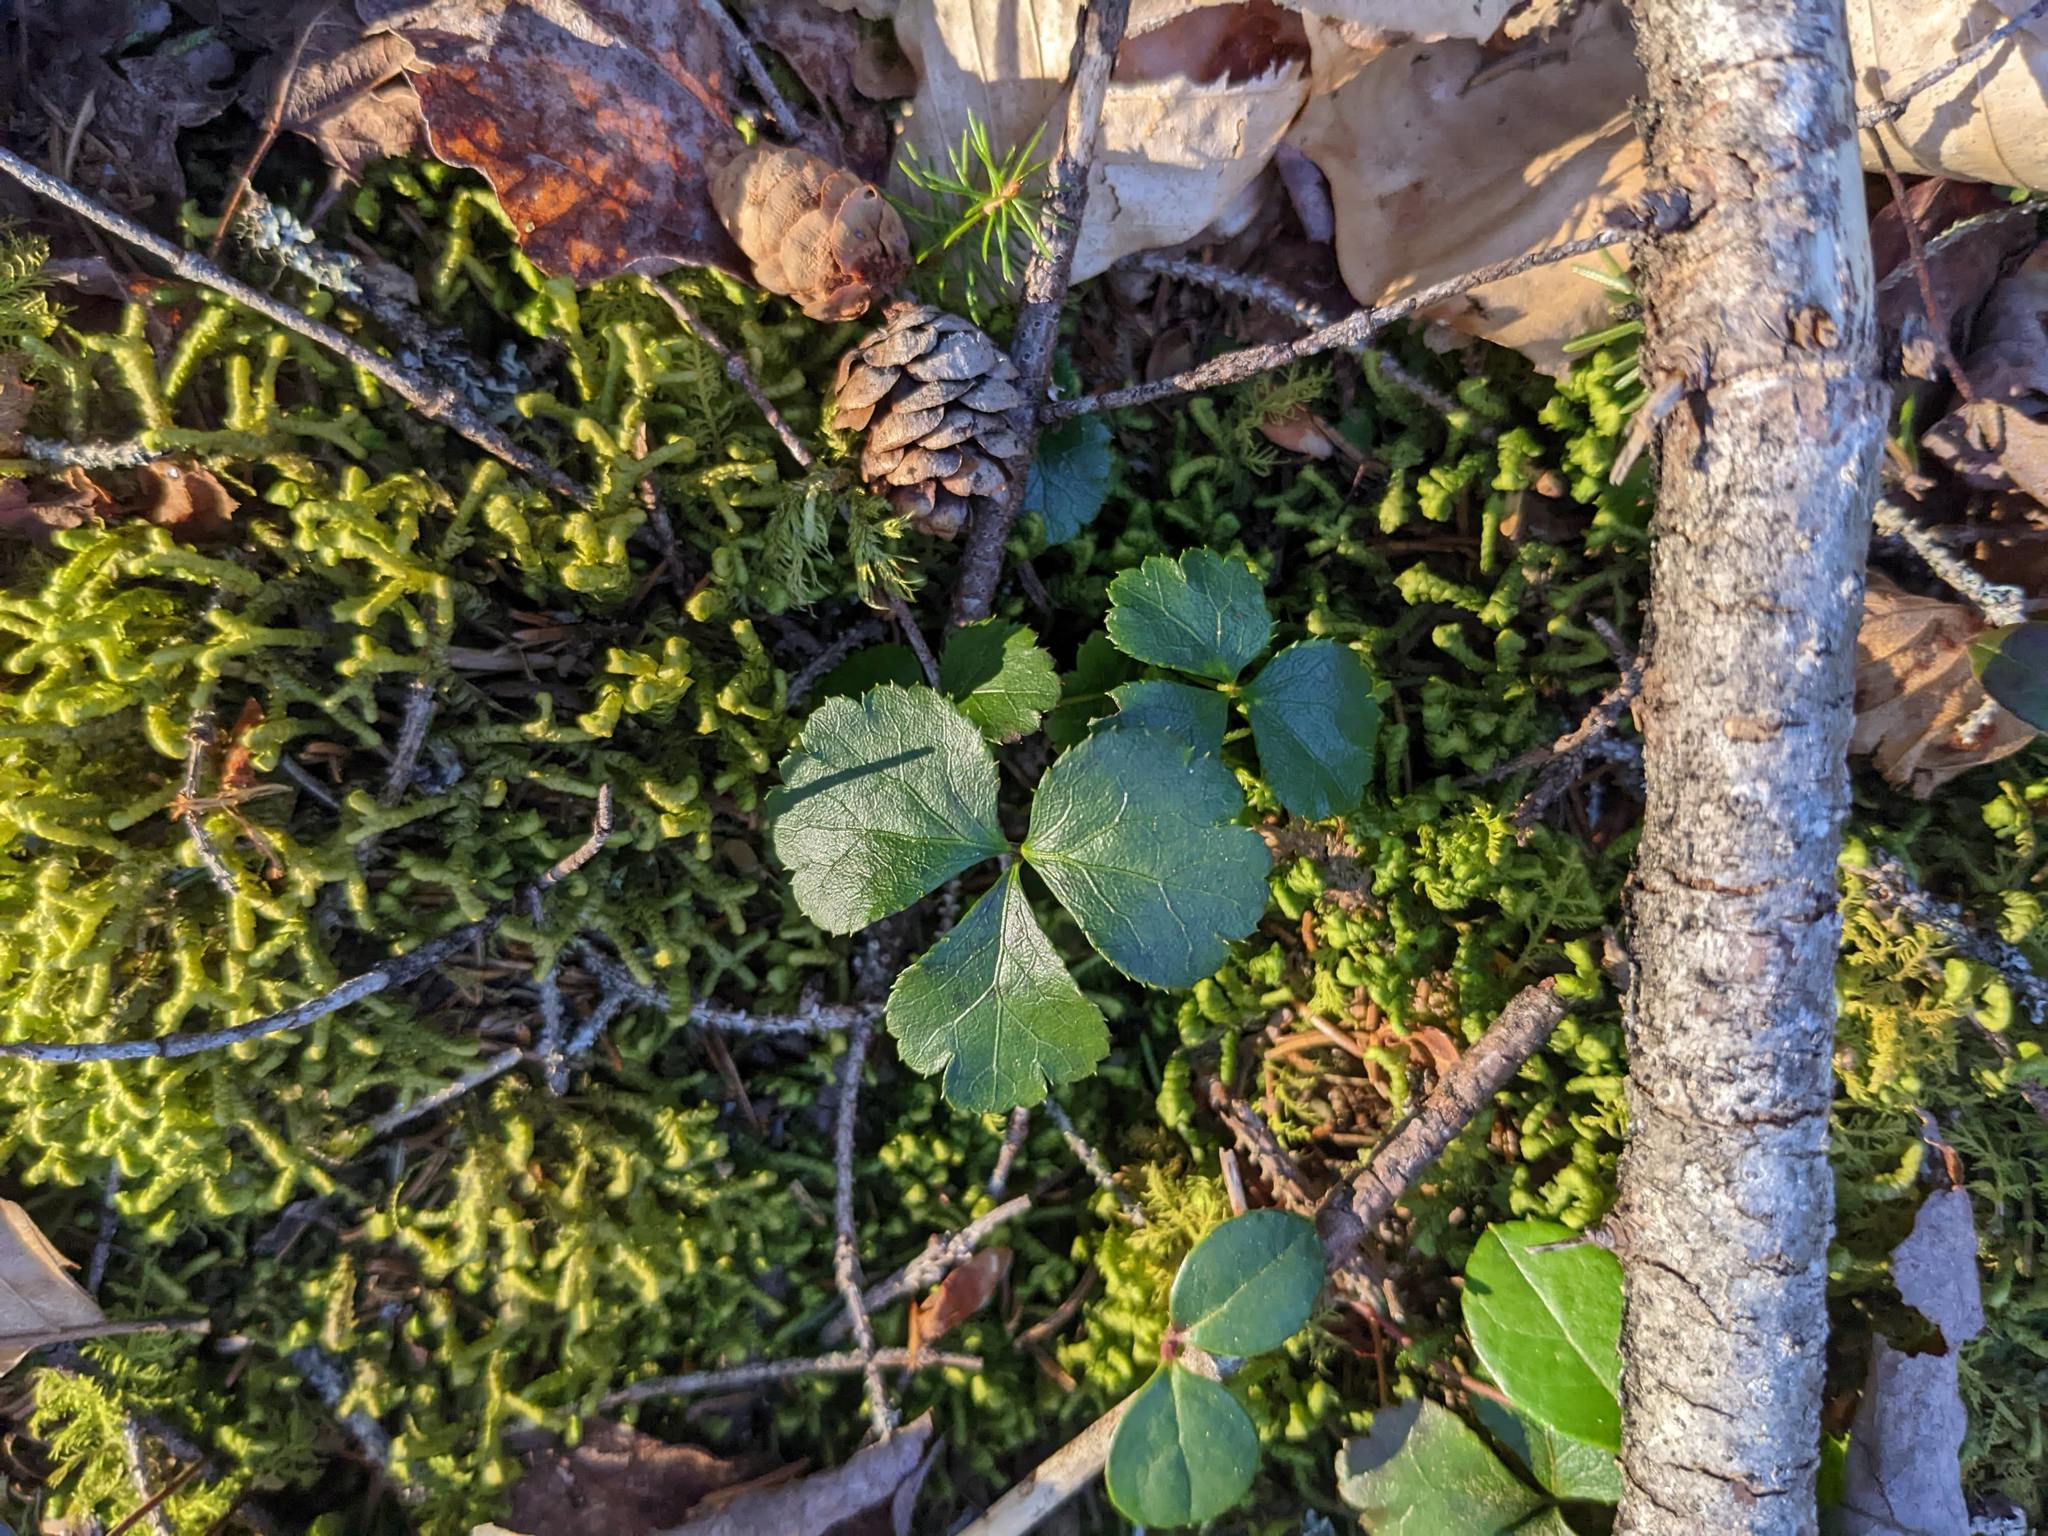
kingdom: Plantae
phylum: Tracheophyta
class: Magnoliopsida
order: Ranunculales
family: Ranunculaceae
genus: Coptis
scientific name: Coptis trifolia
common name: Canker-root
